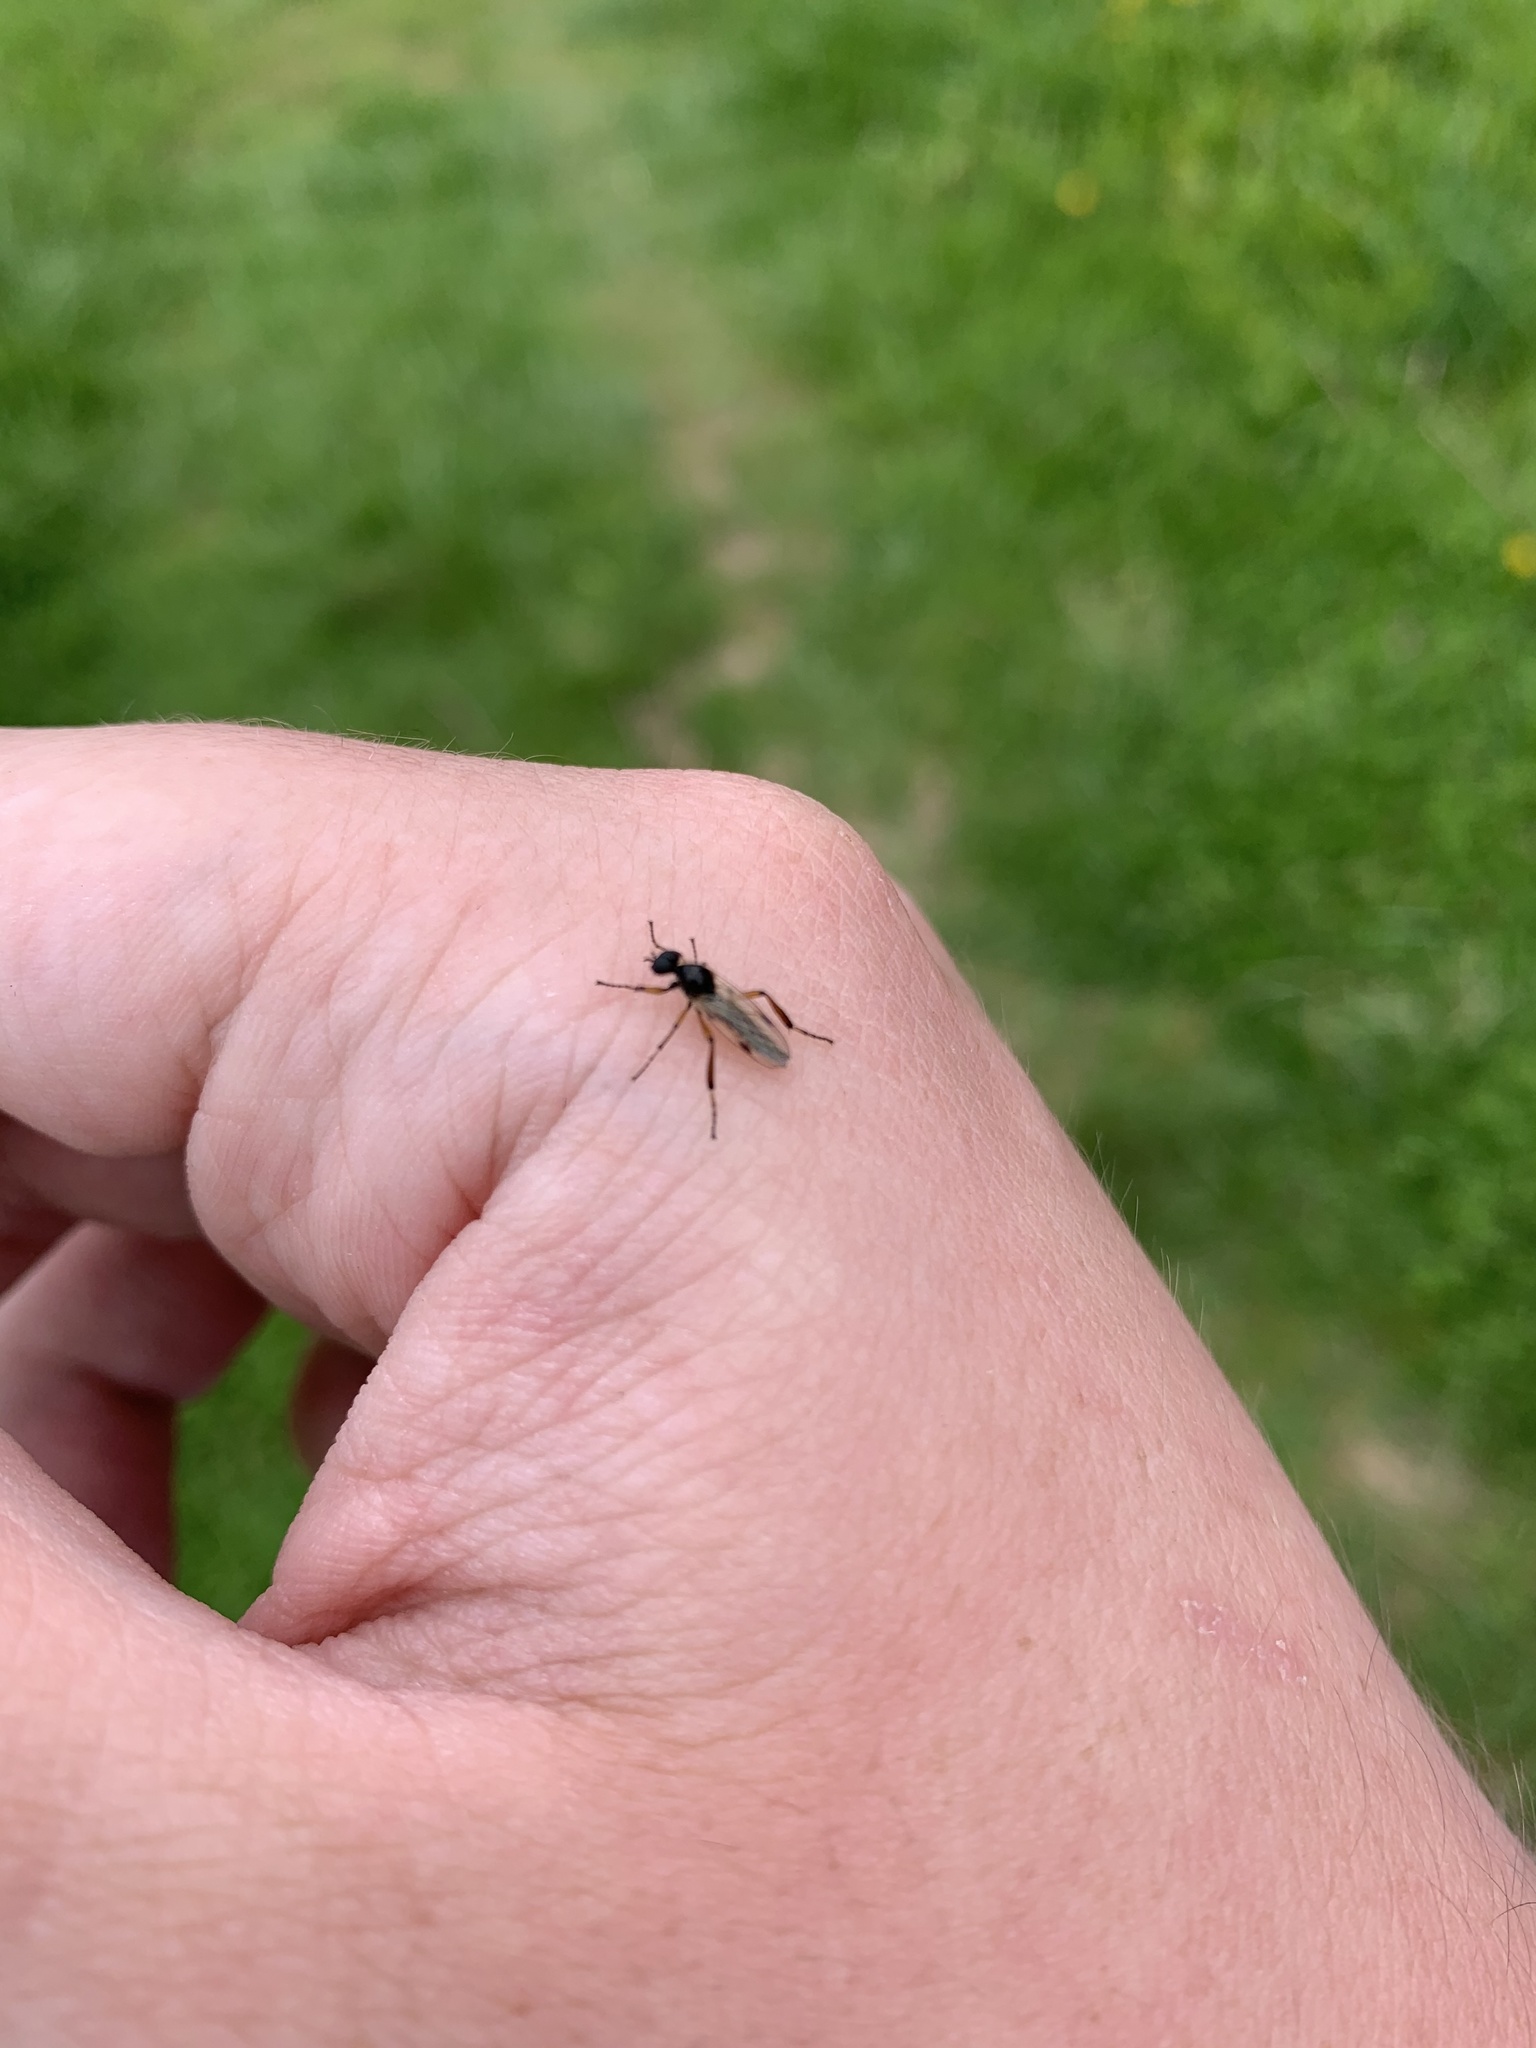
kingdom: Animalia
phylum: Arthropoda
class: Insecta
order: Diptera
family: Bibionidae
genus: Bibio
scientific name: Bibio
